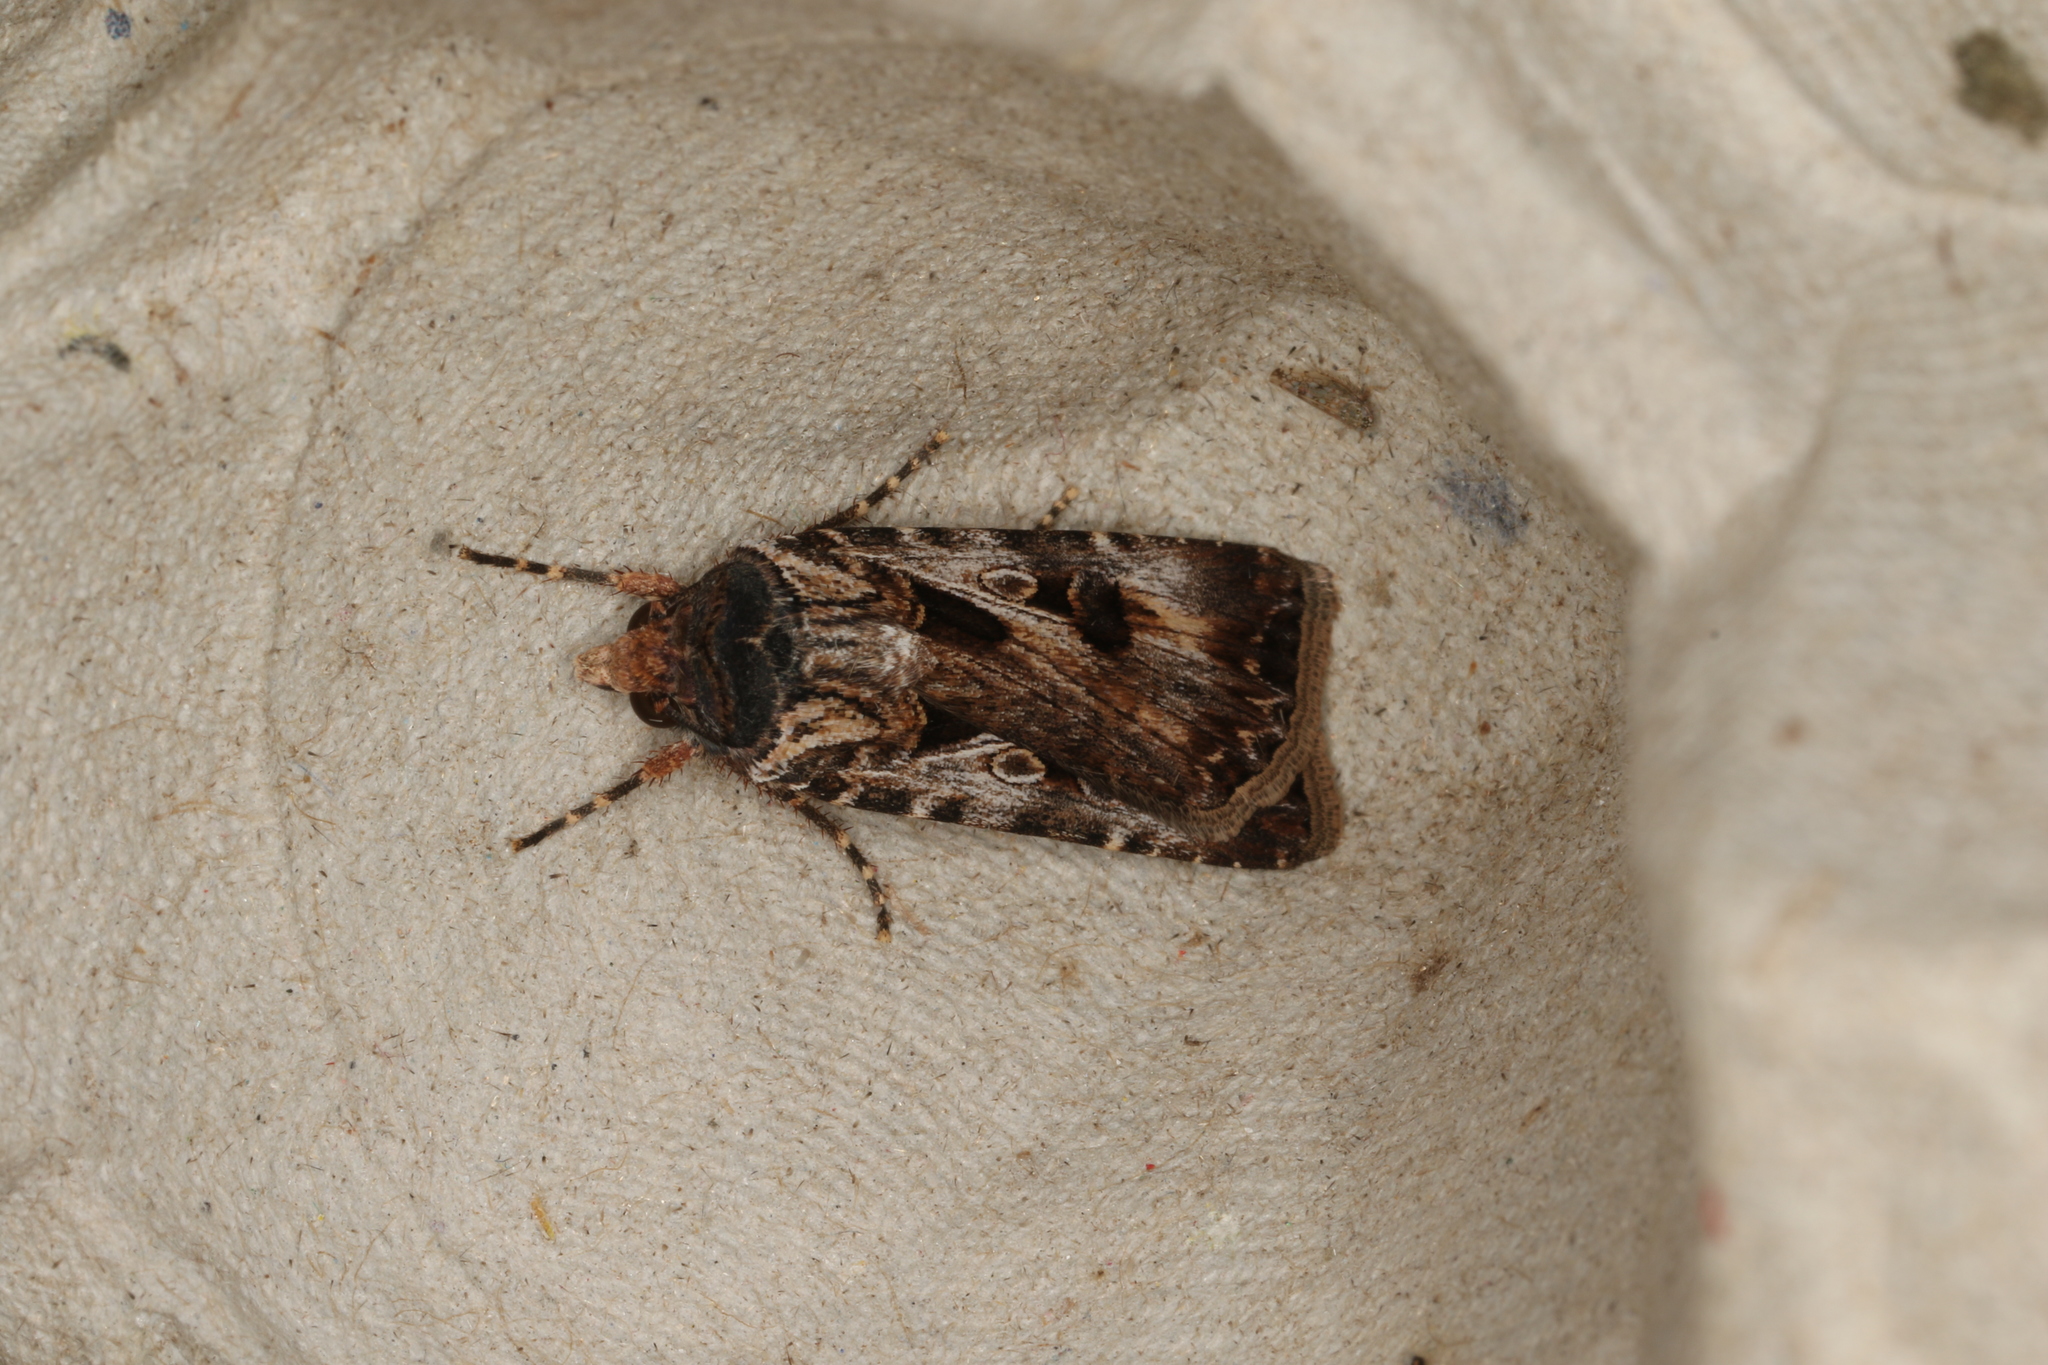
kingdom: Animalia
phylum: Arthropoda
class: Insecta
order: Lepidoptera
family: Noctuidae
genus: Agrotis
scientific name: Agrotis munda
